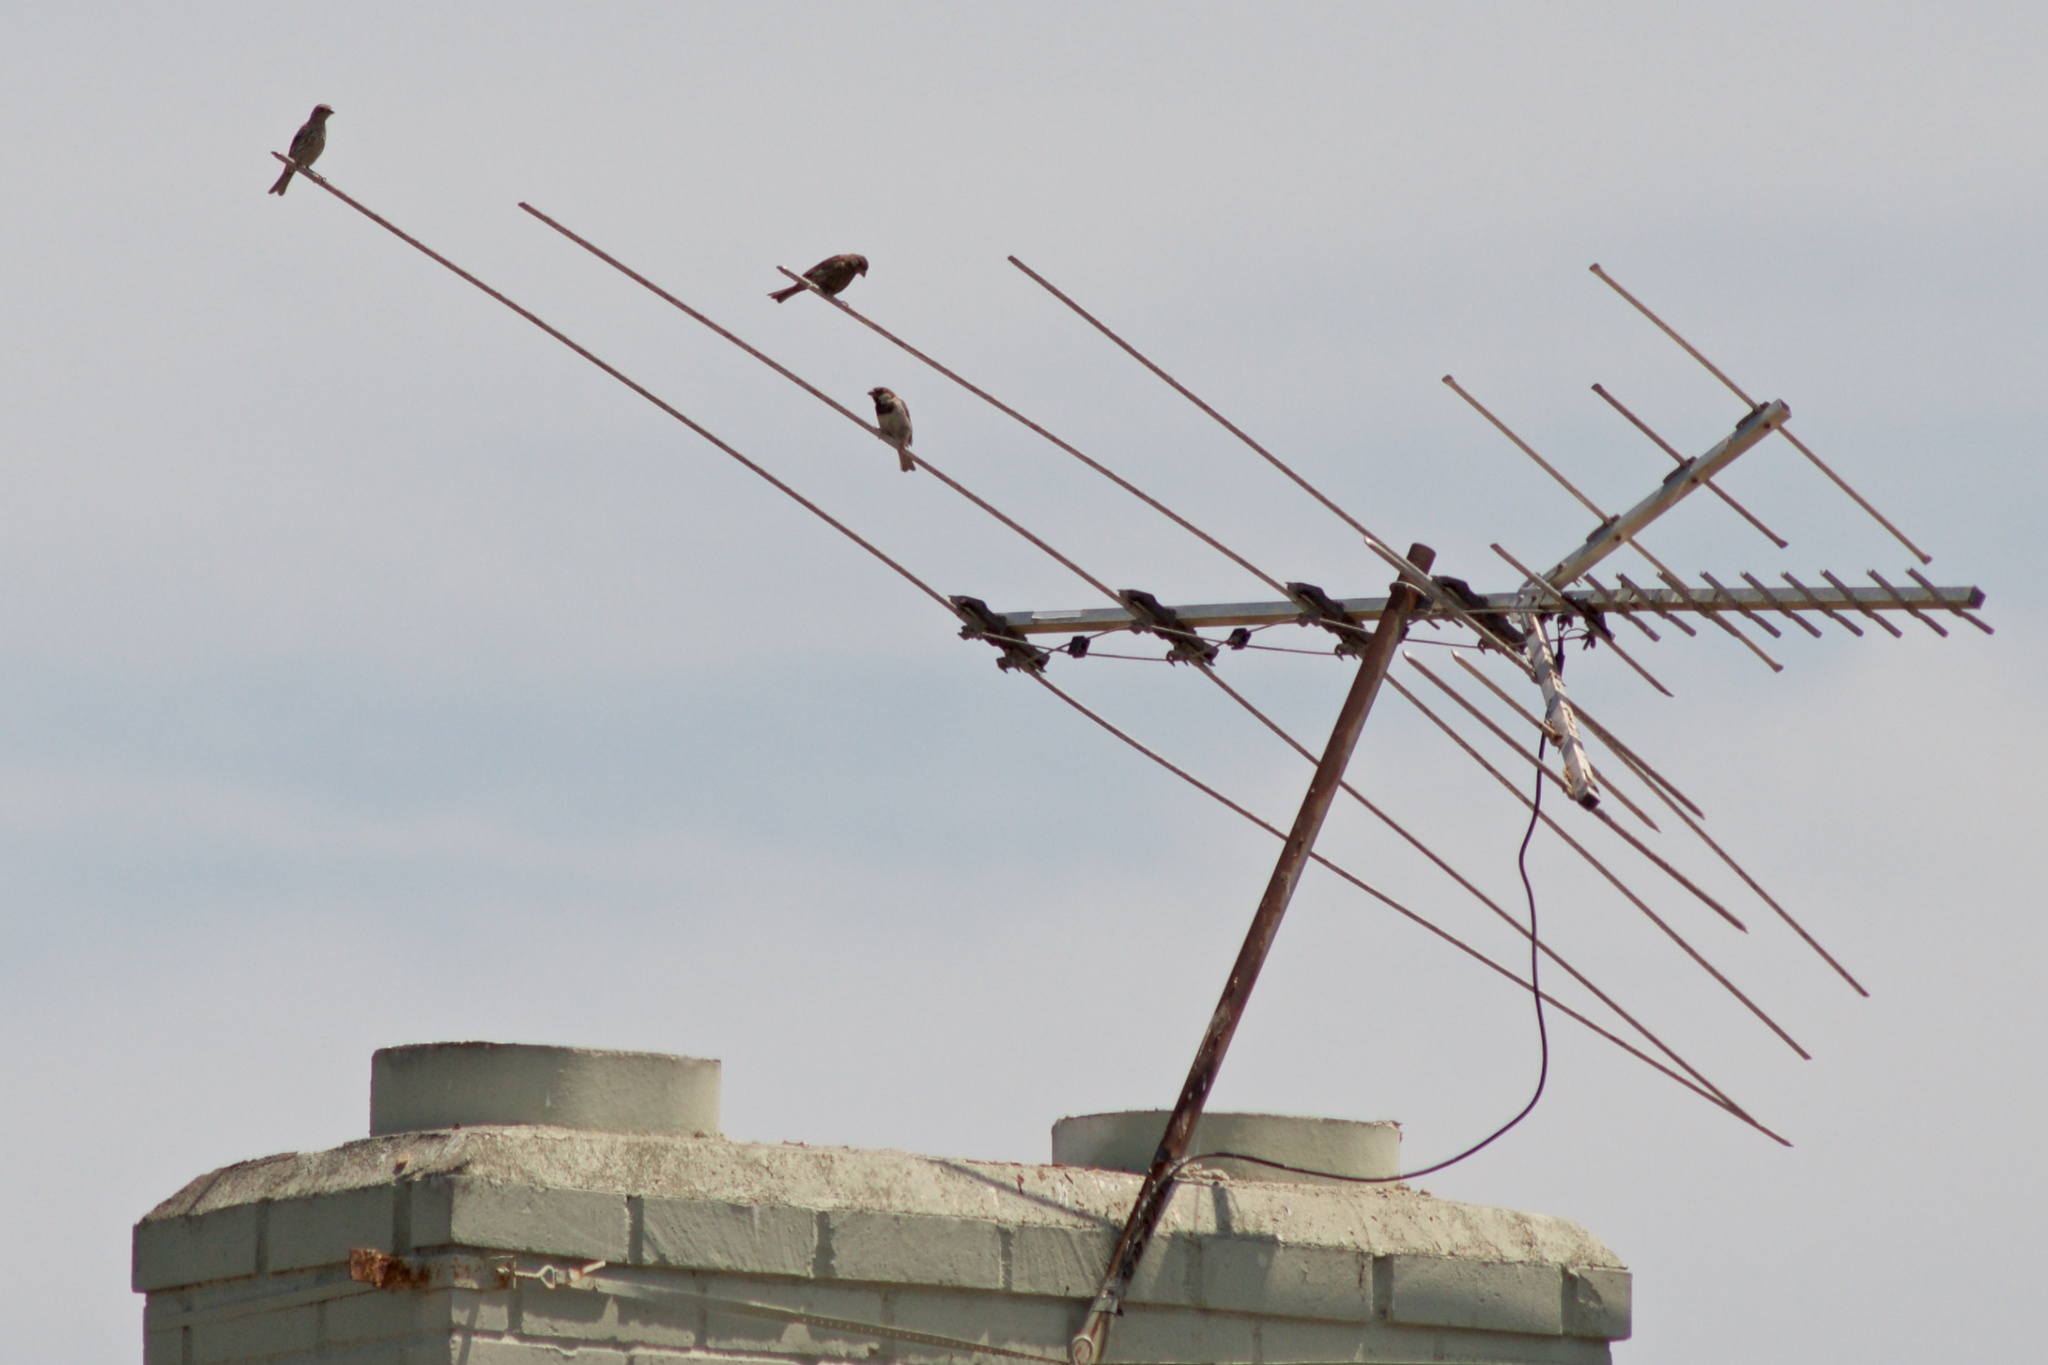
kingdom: Animalia
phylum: Chordata
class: Aves
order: Passeriformes
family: Passeridae
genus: Passer
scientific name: Passer domesticus
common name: House sparrow
